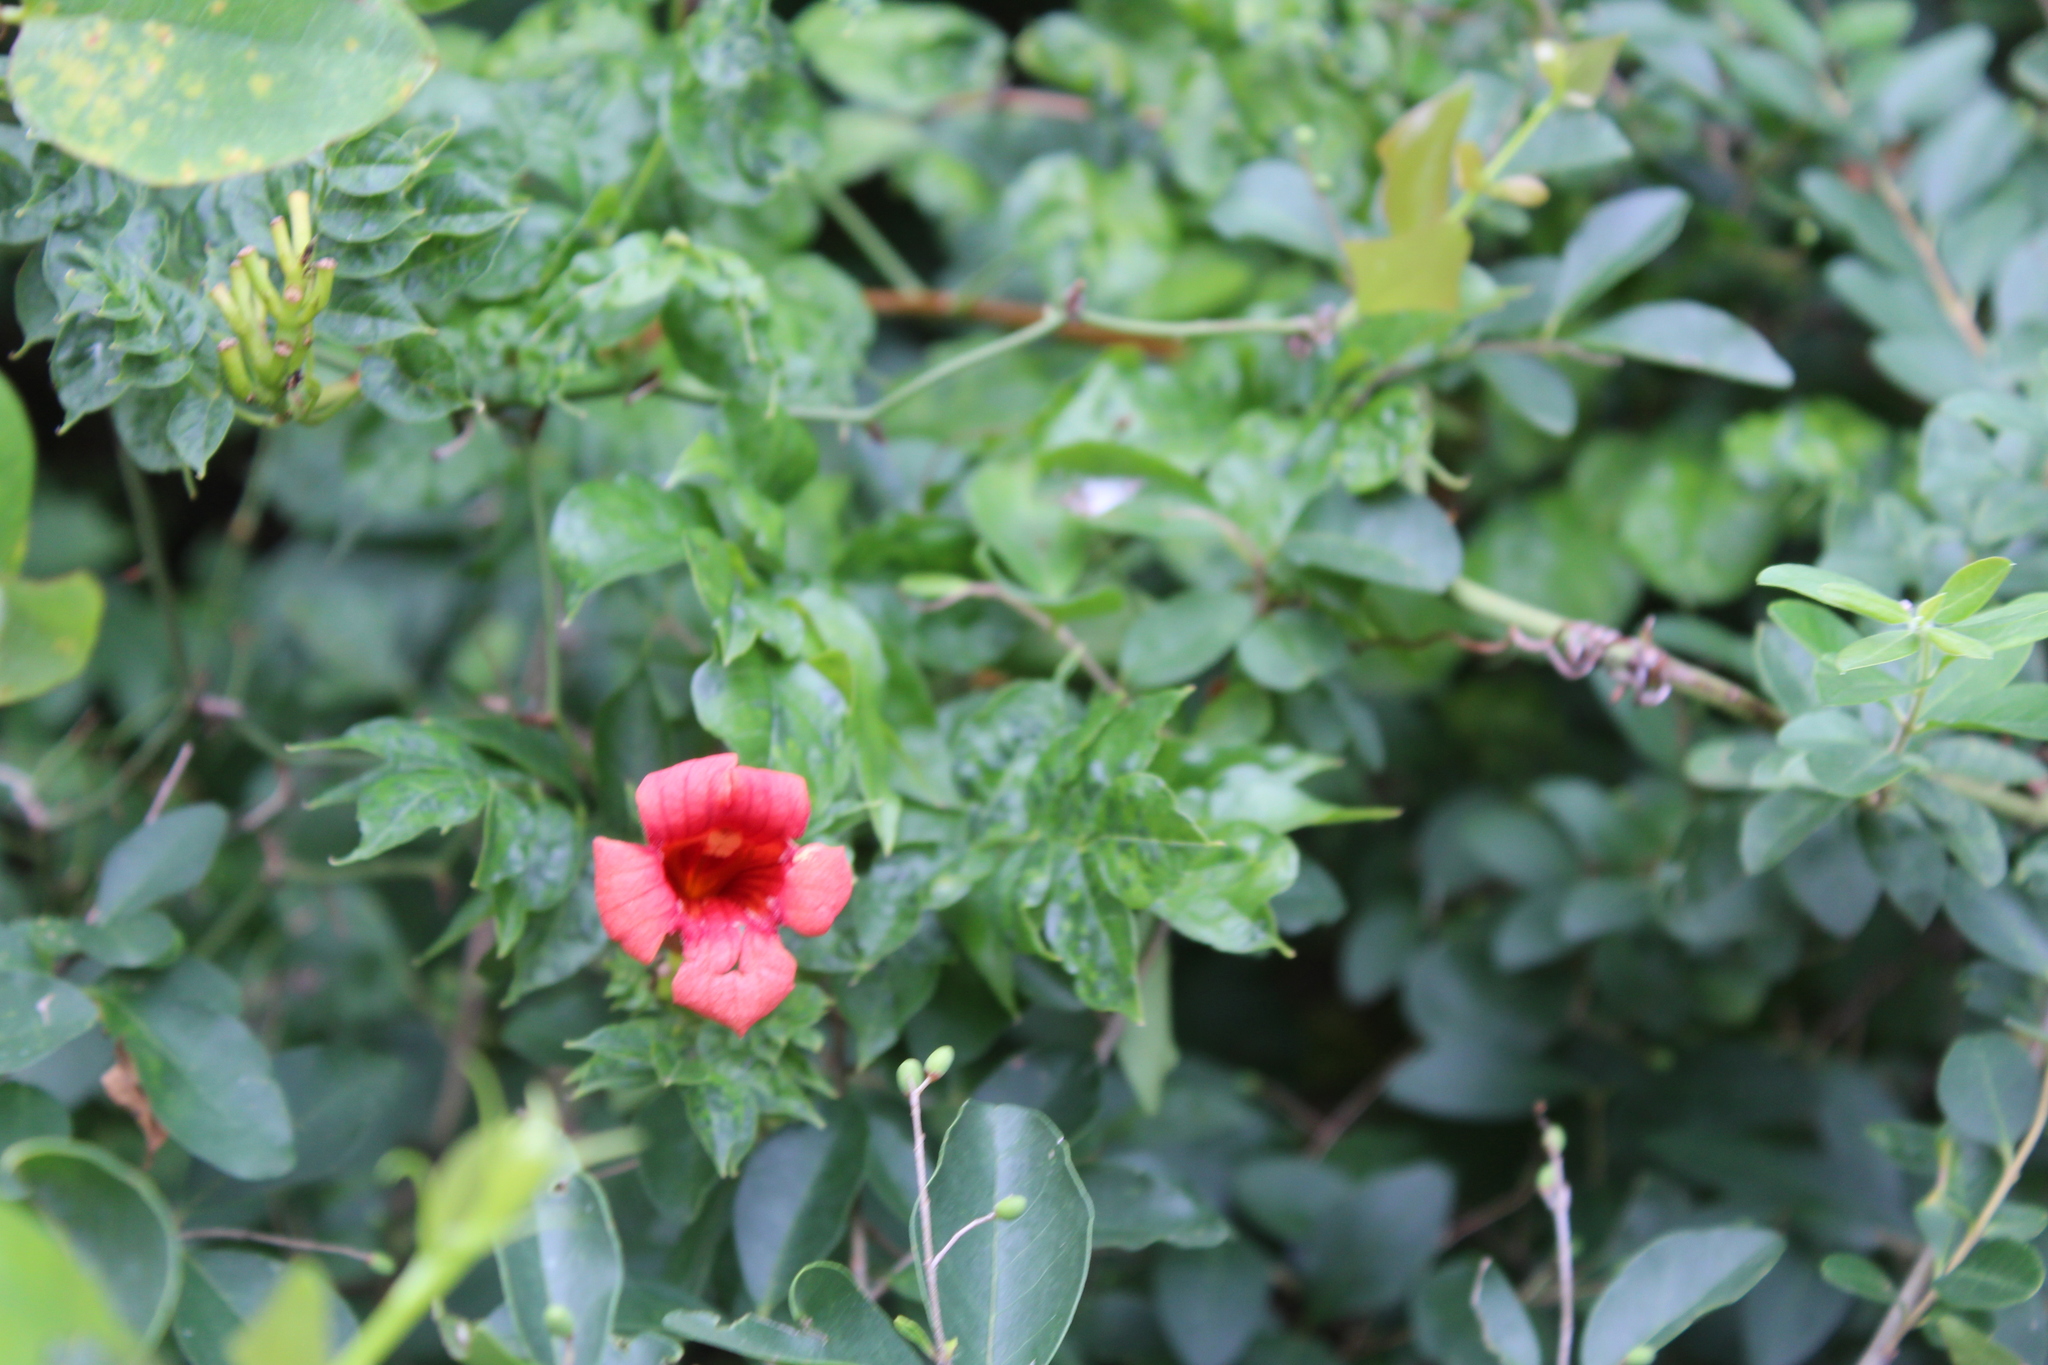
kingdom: Plantae
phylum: Tracheophyta
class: Magnoliopsida
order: Lamiales
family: Bignoniaceae
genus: Campsis
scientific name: Campsis radicans
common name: Trumpet-creeper
